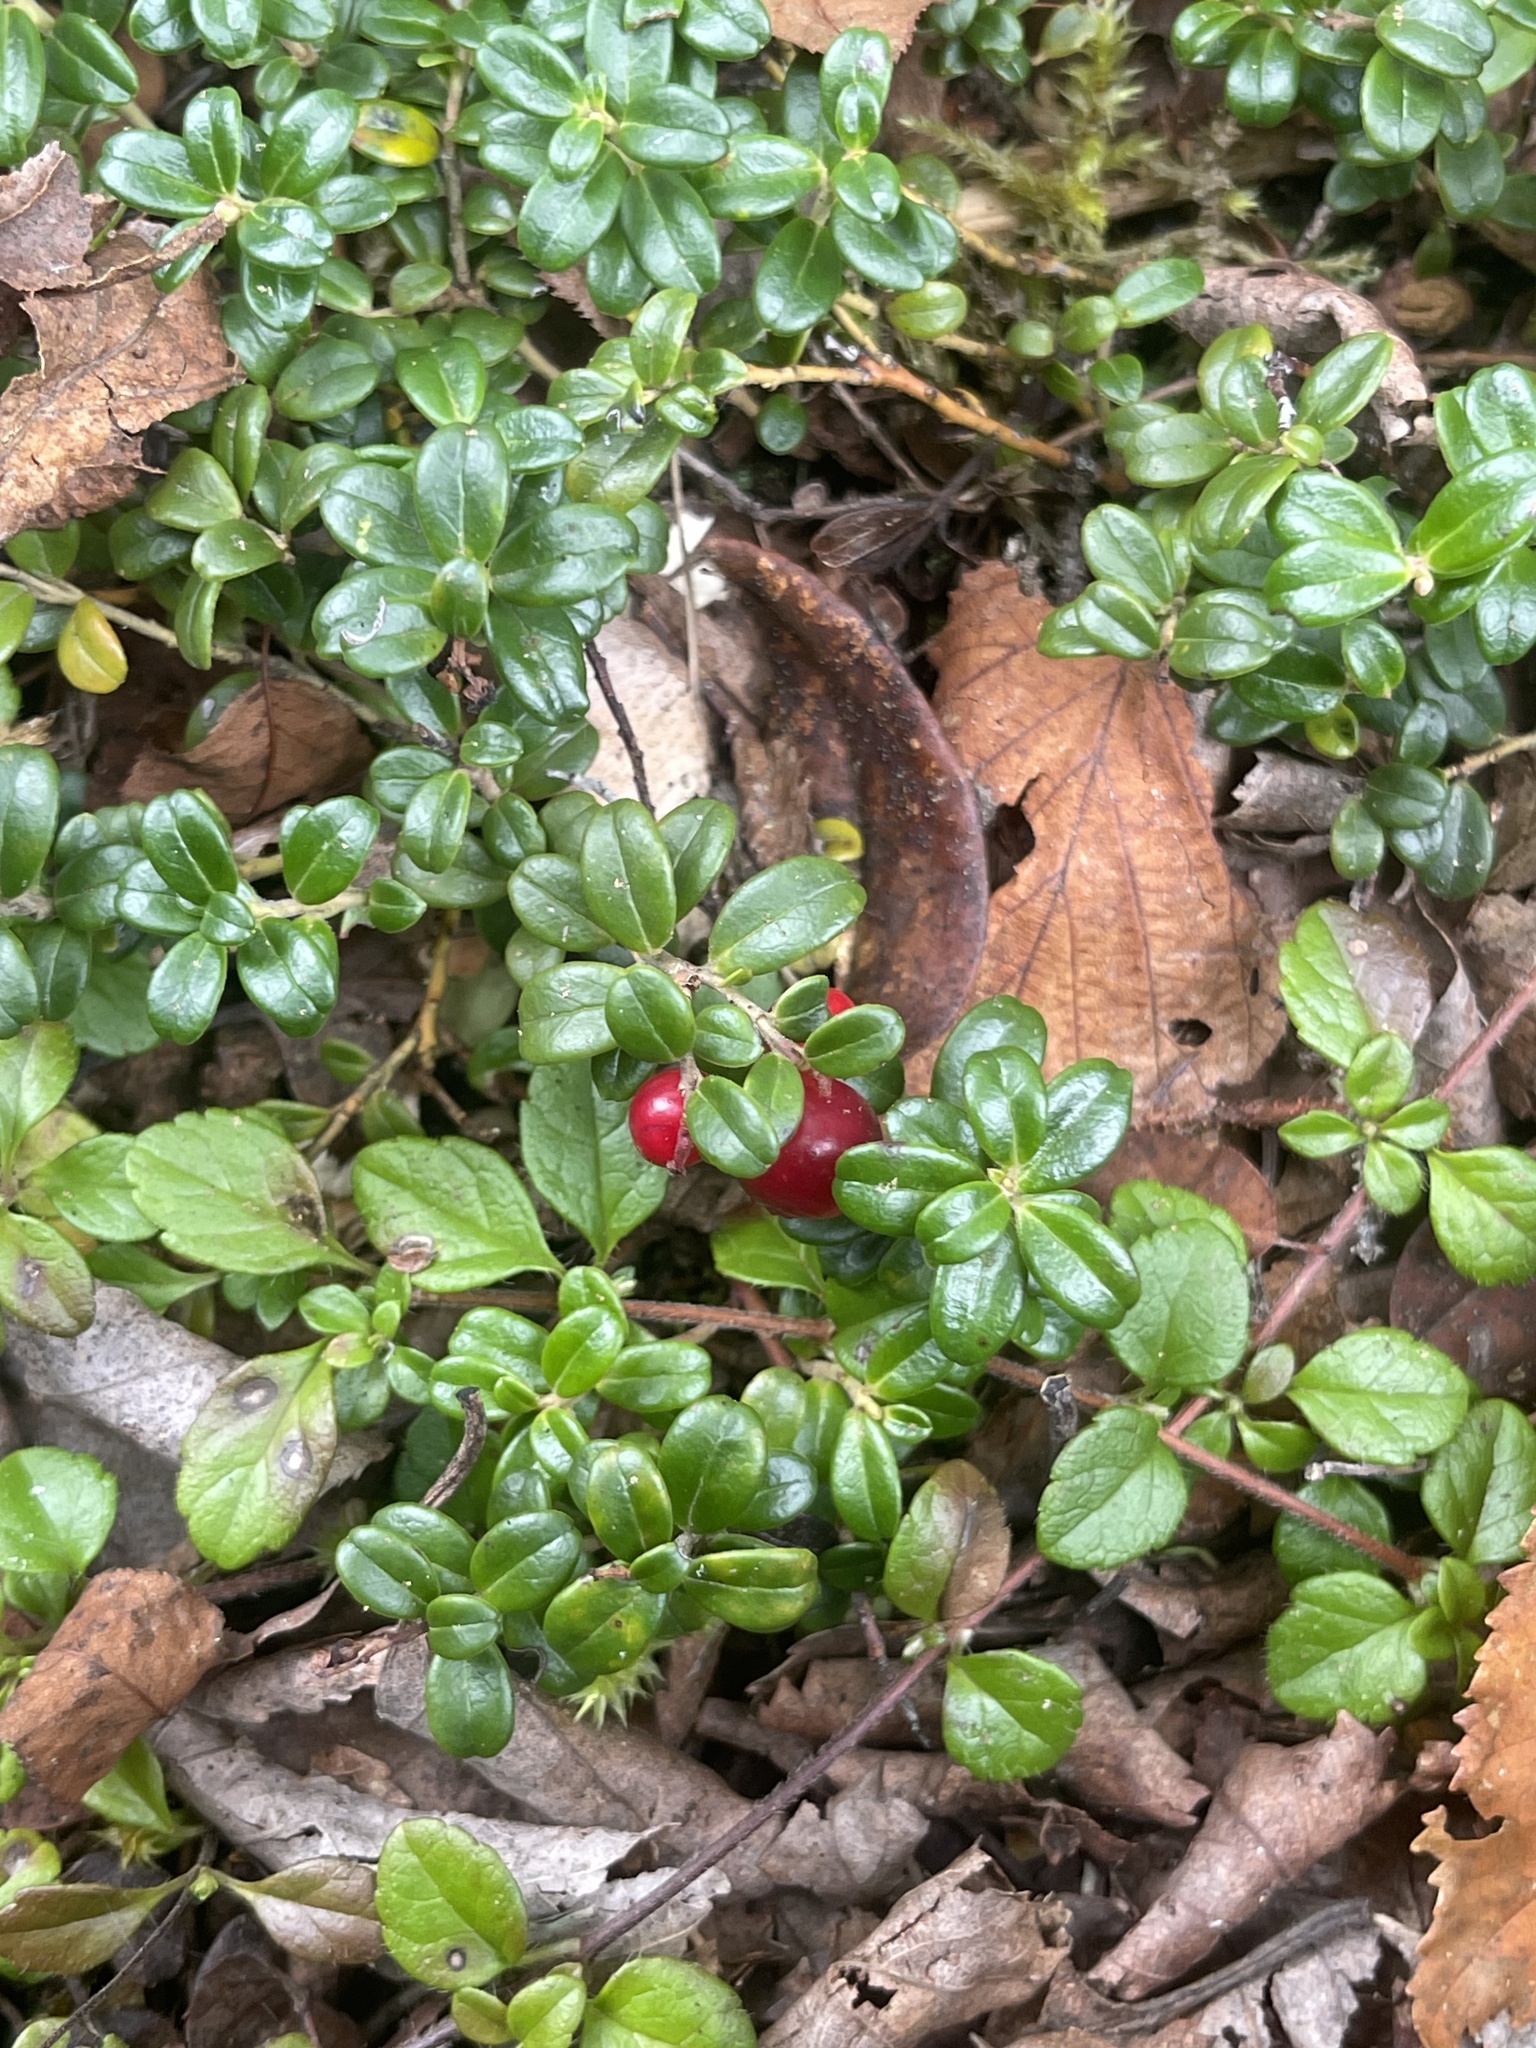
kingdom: Plantae
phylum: Tracheophyta
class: Magnoliopsida
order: Ericales
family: Ericaceae
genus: Vaccinium
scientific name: Vaccinium vitis-idaea
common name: Cowberry
